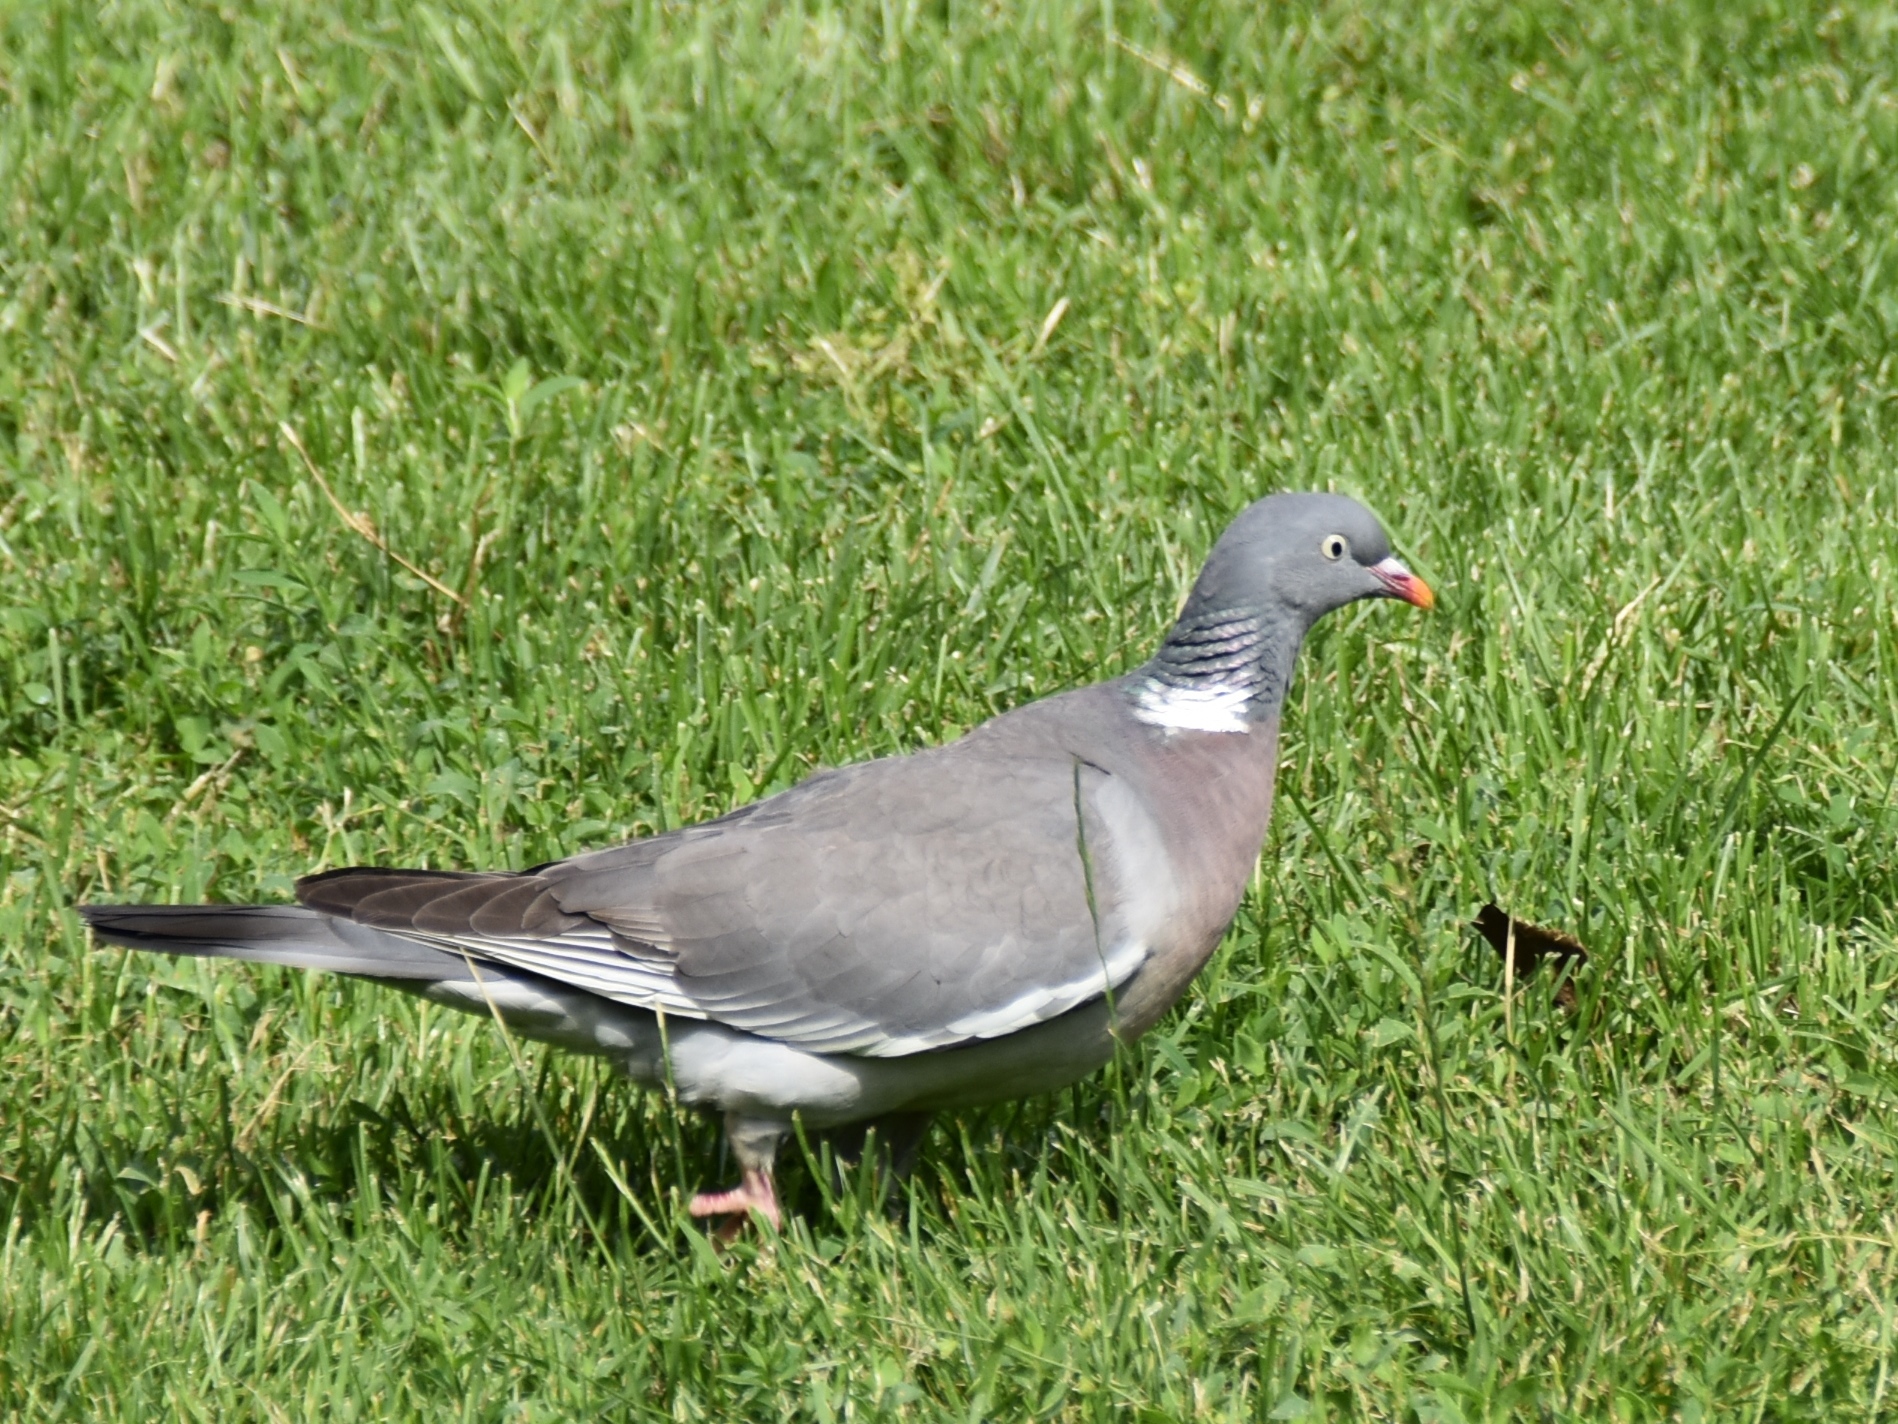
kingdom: Animalia
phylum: Chordata
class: Aves
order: Columbiformes
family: Columbidae
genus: Columba
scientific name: Columba palumbus
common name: Common wood pigeon
